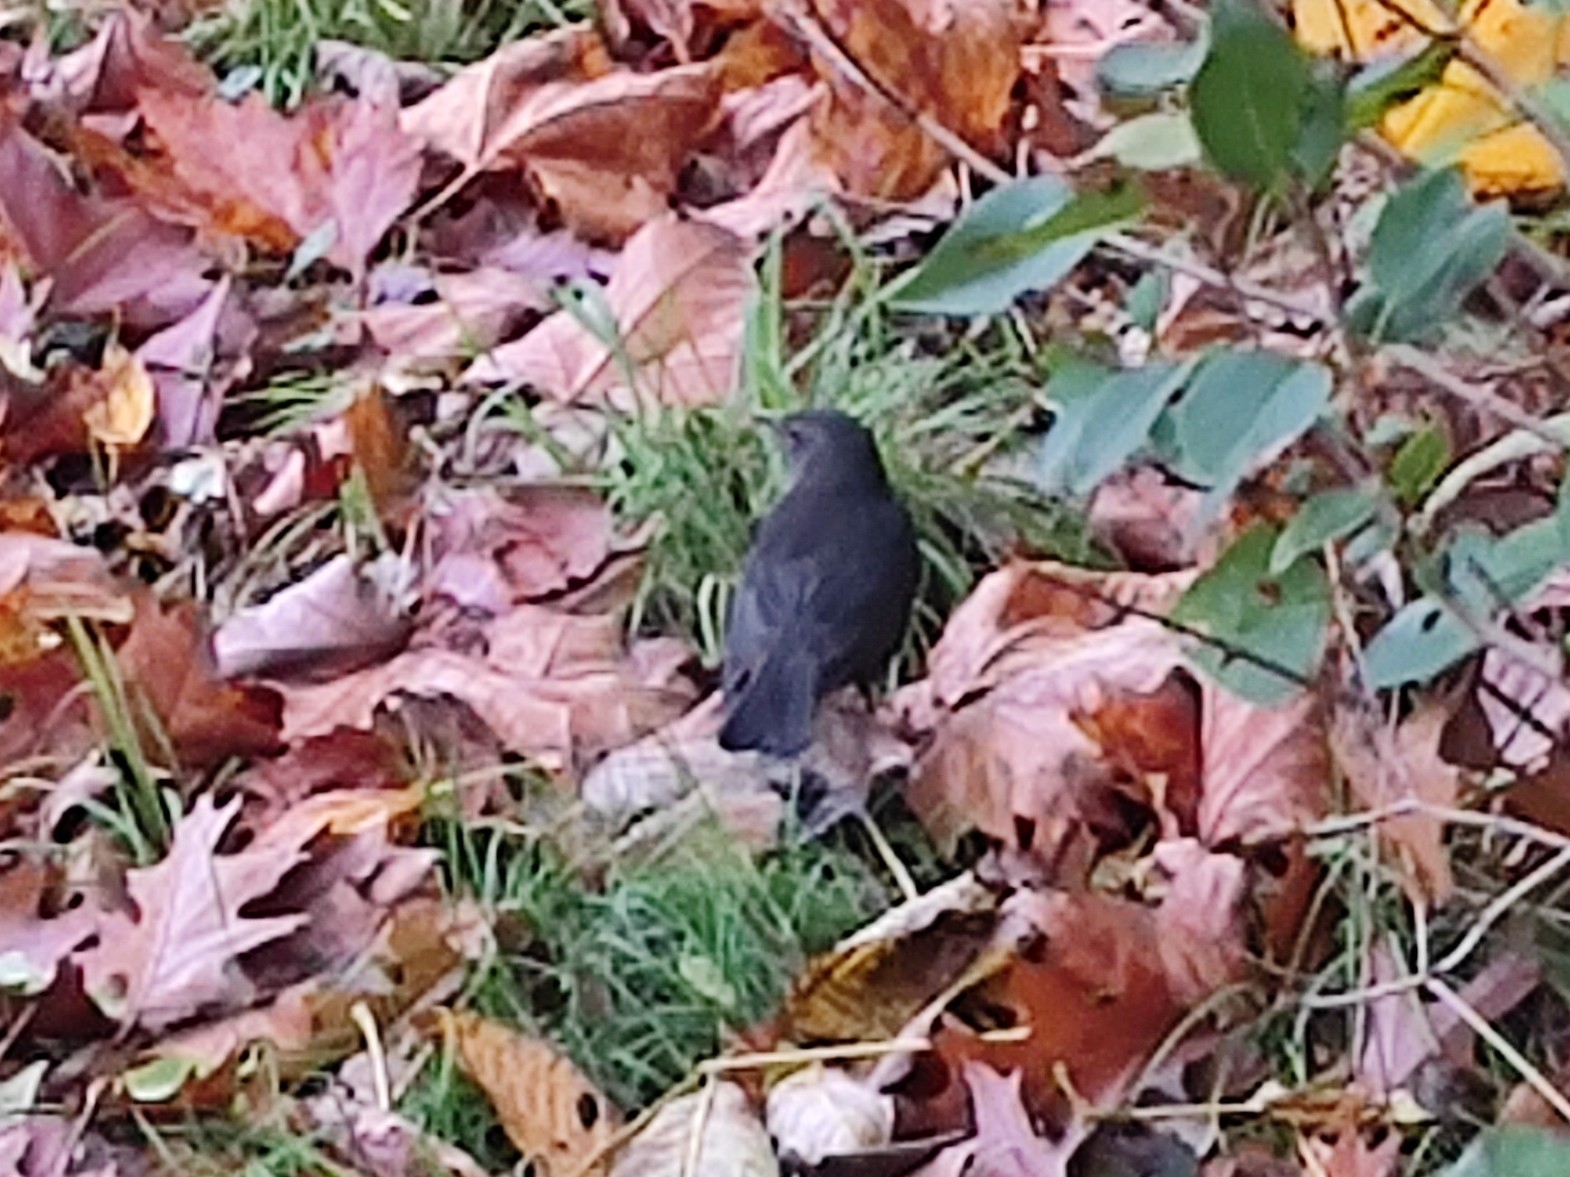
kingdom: Animalia
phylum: Chordata
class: Aves
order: Passeriformes
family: Turdidae
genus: Turdus
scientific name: Turdus merula
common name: Common blackbird
